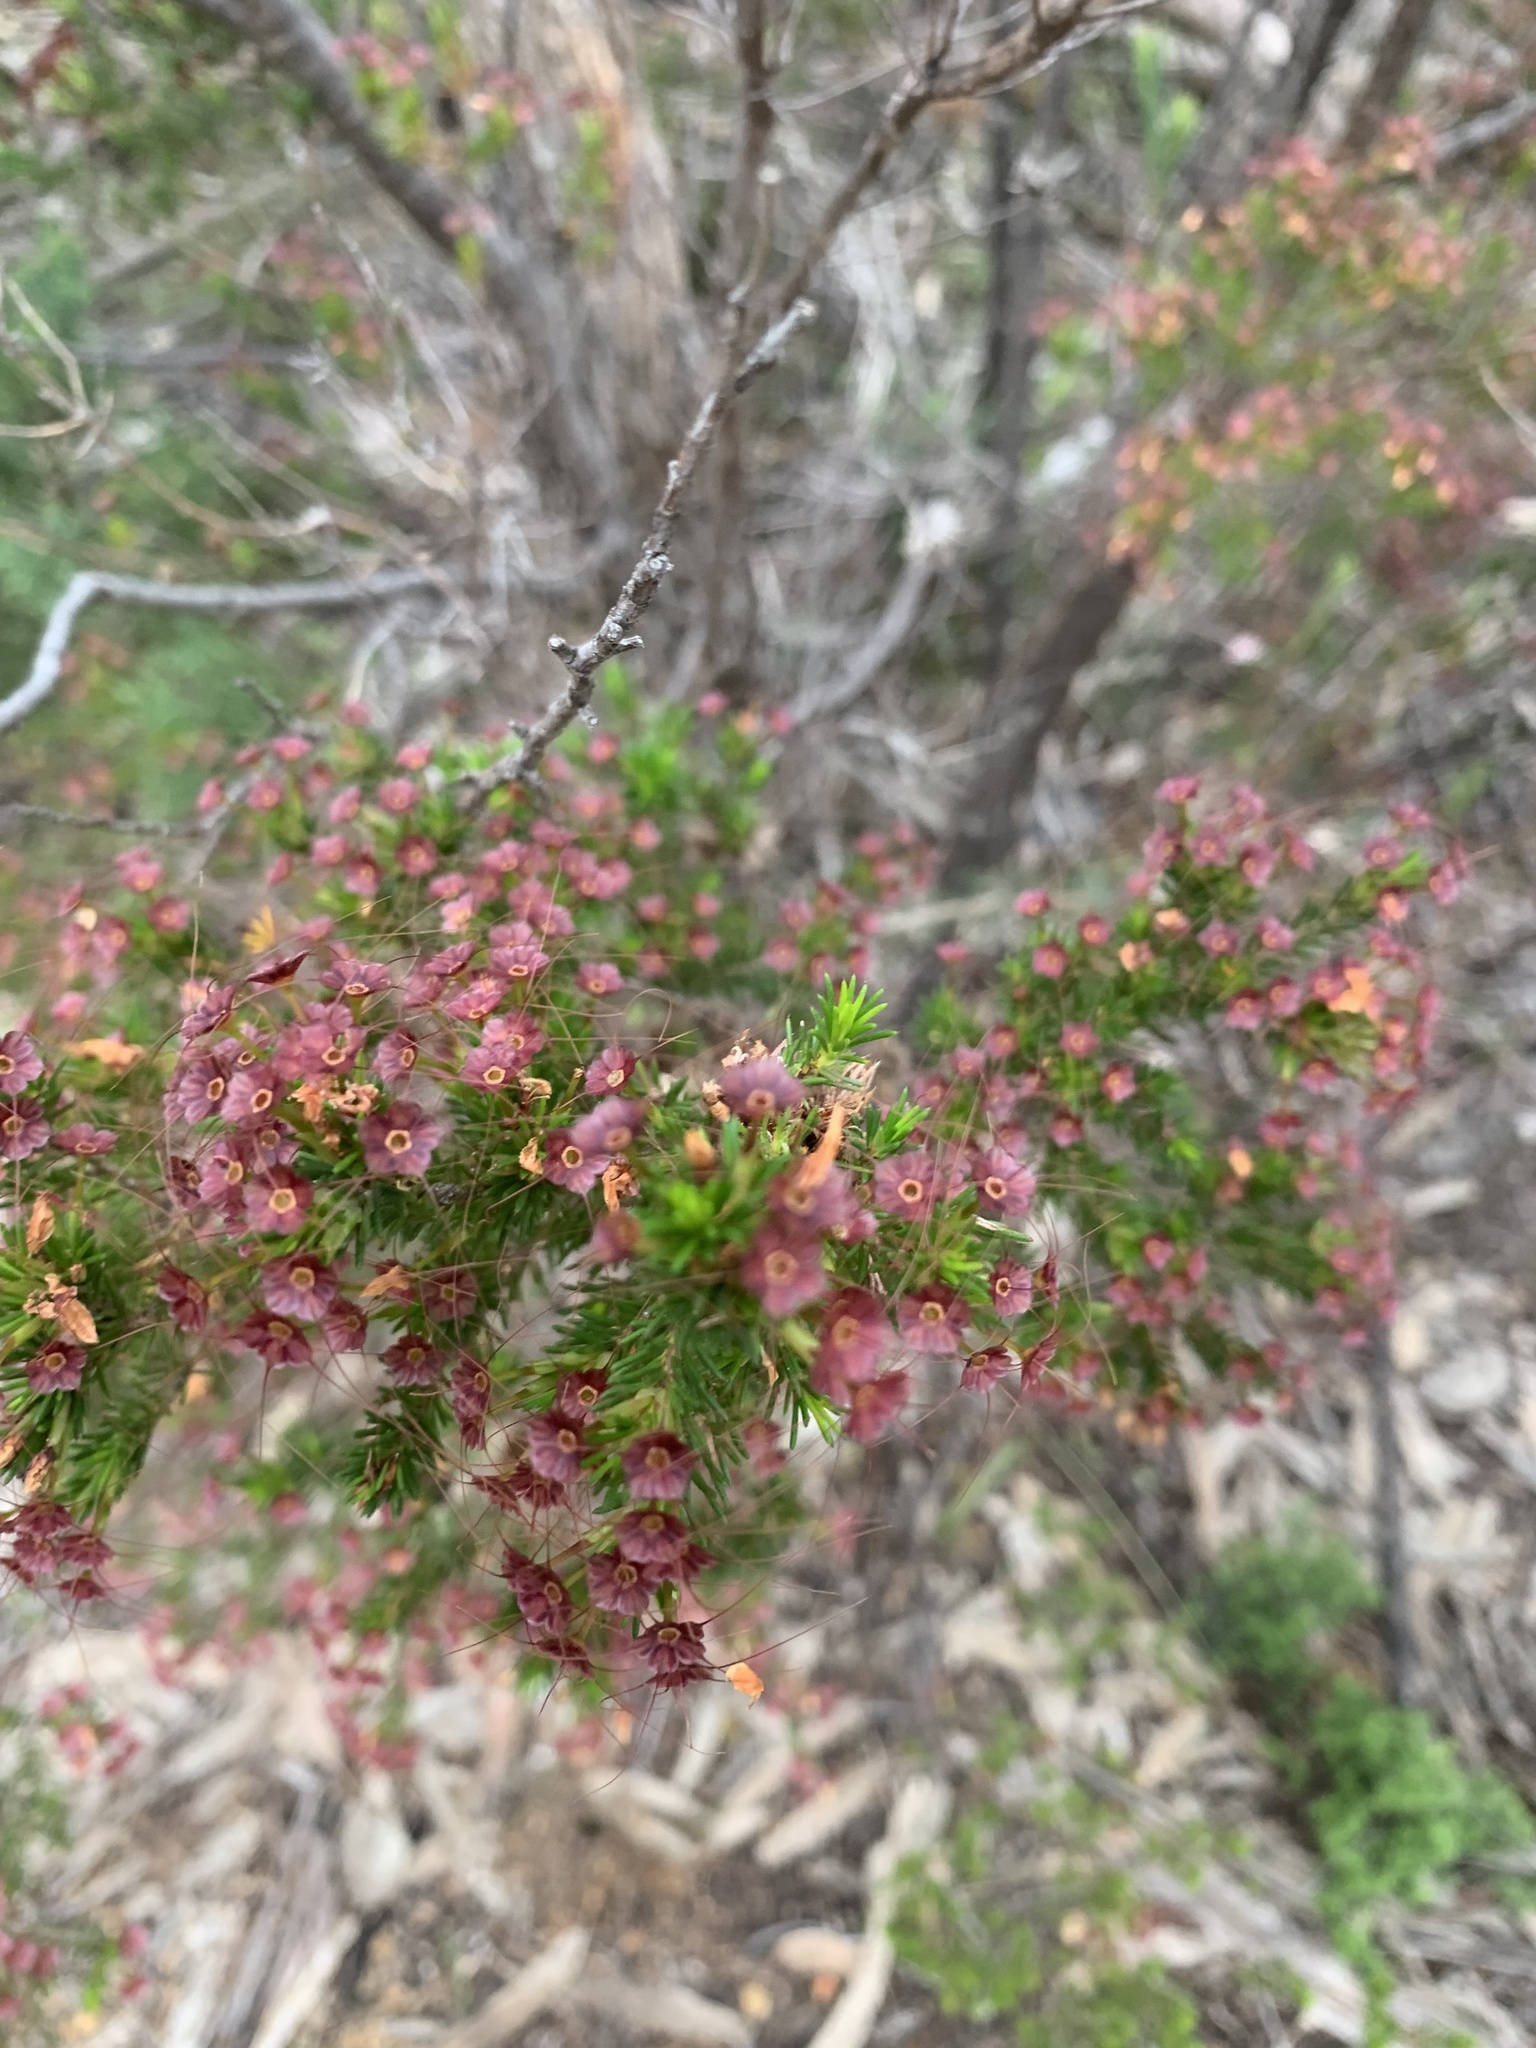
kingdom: Plantae
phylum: Tracheophyta
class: Magnoliopsida
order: Myrtales
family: Myrtaceae
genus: Calytrix
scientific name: Calytrix tetragona
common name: Common fringe myrtle
